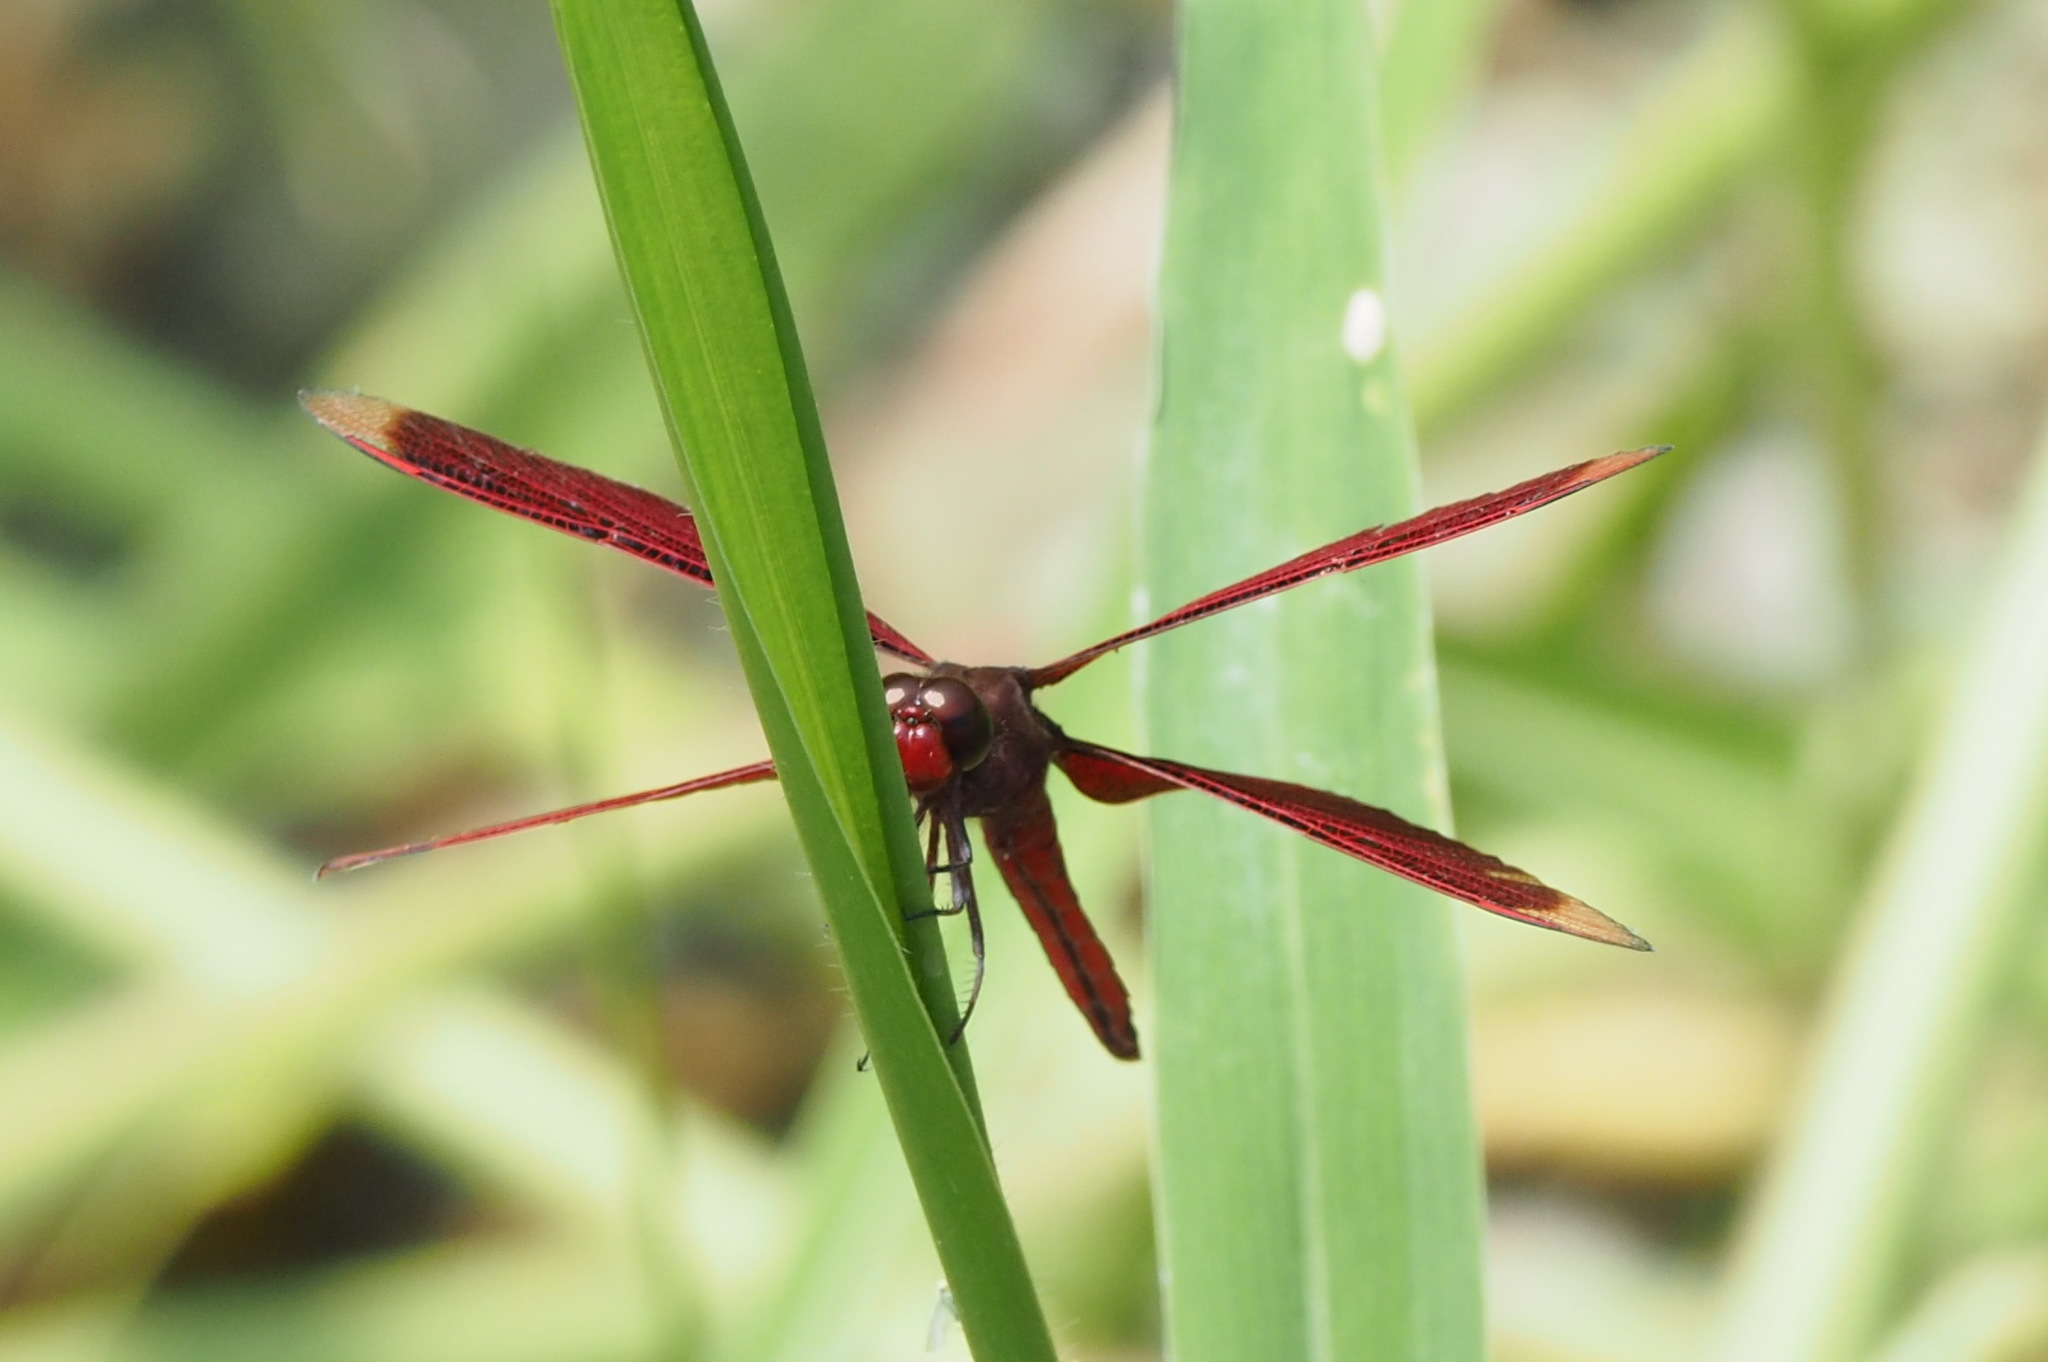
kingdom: Animalia
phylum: Arthropoda
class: Insecta
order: Odonata
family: Libellulidae
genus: Neurothemis
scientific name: Neurothemis taiwanensis
